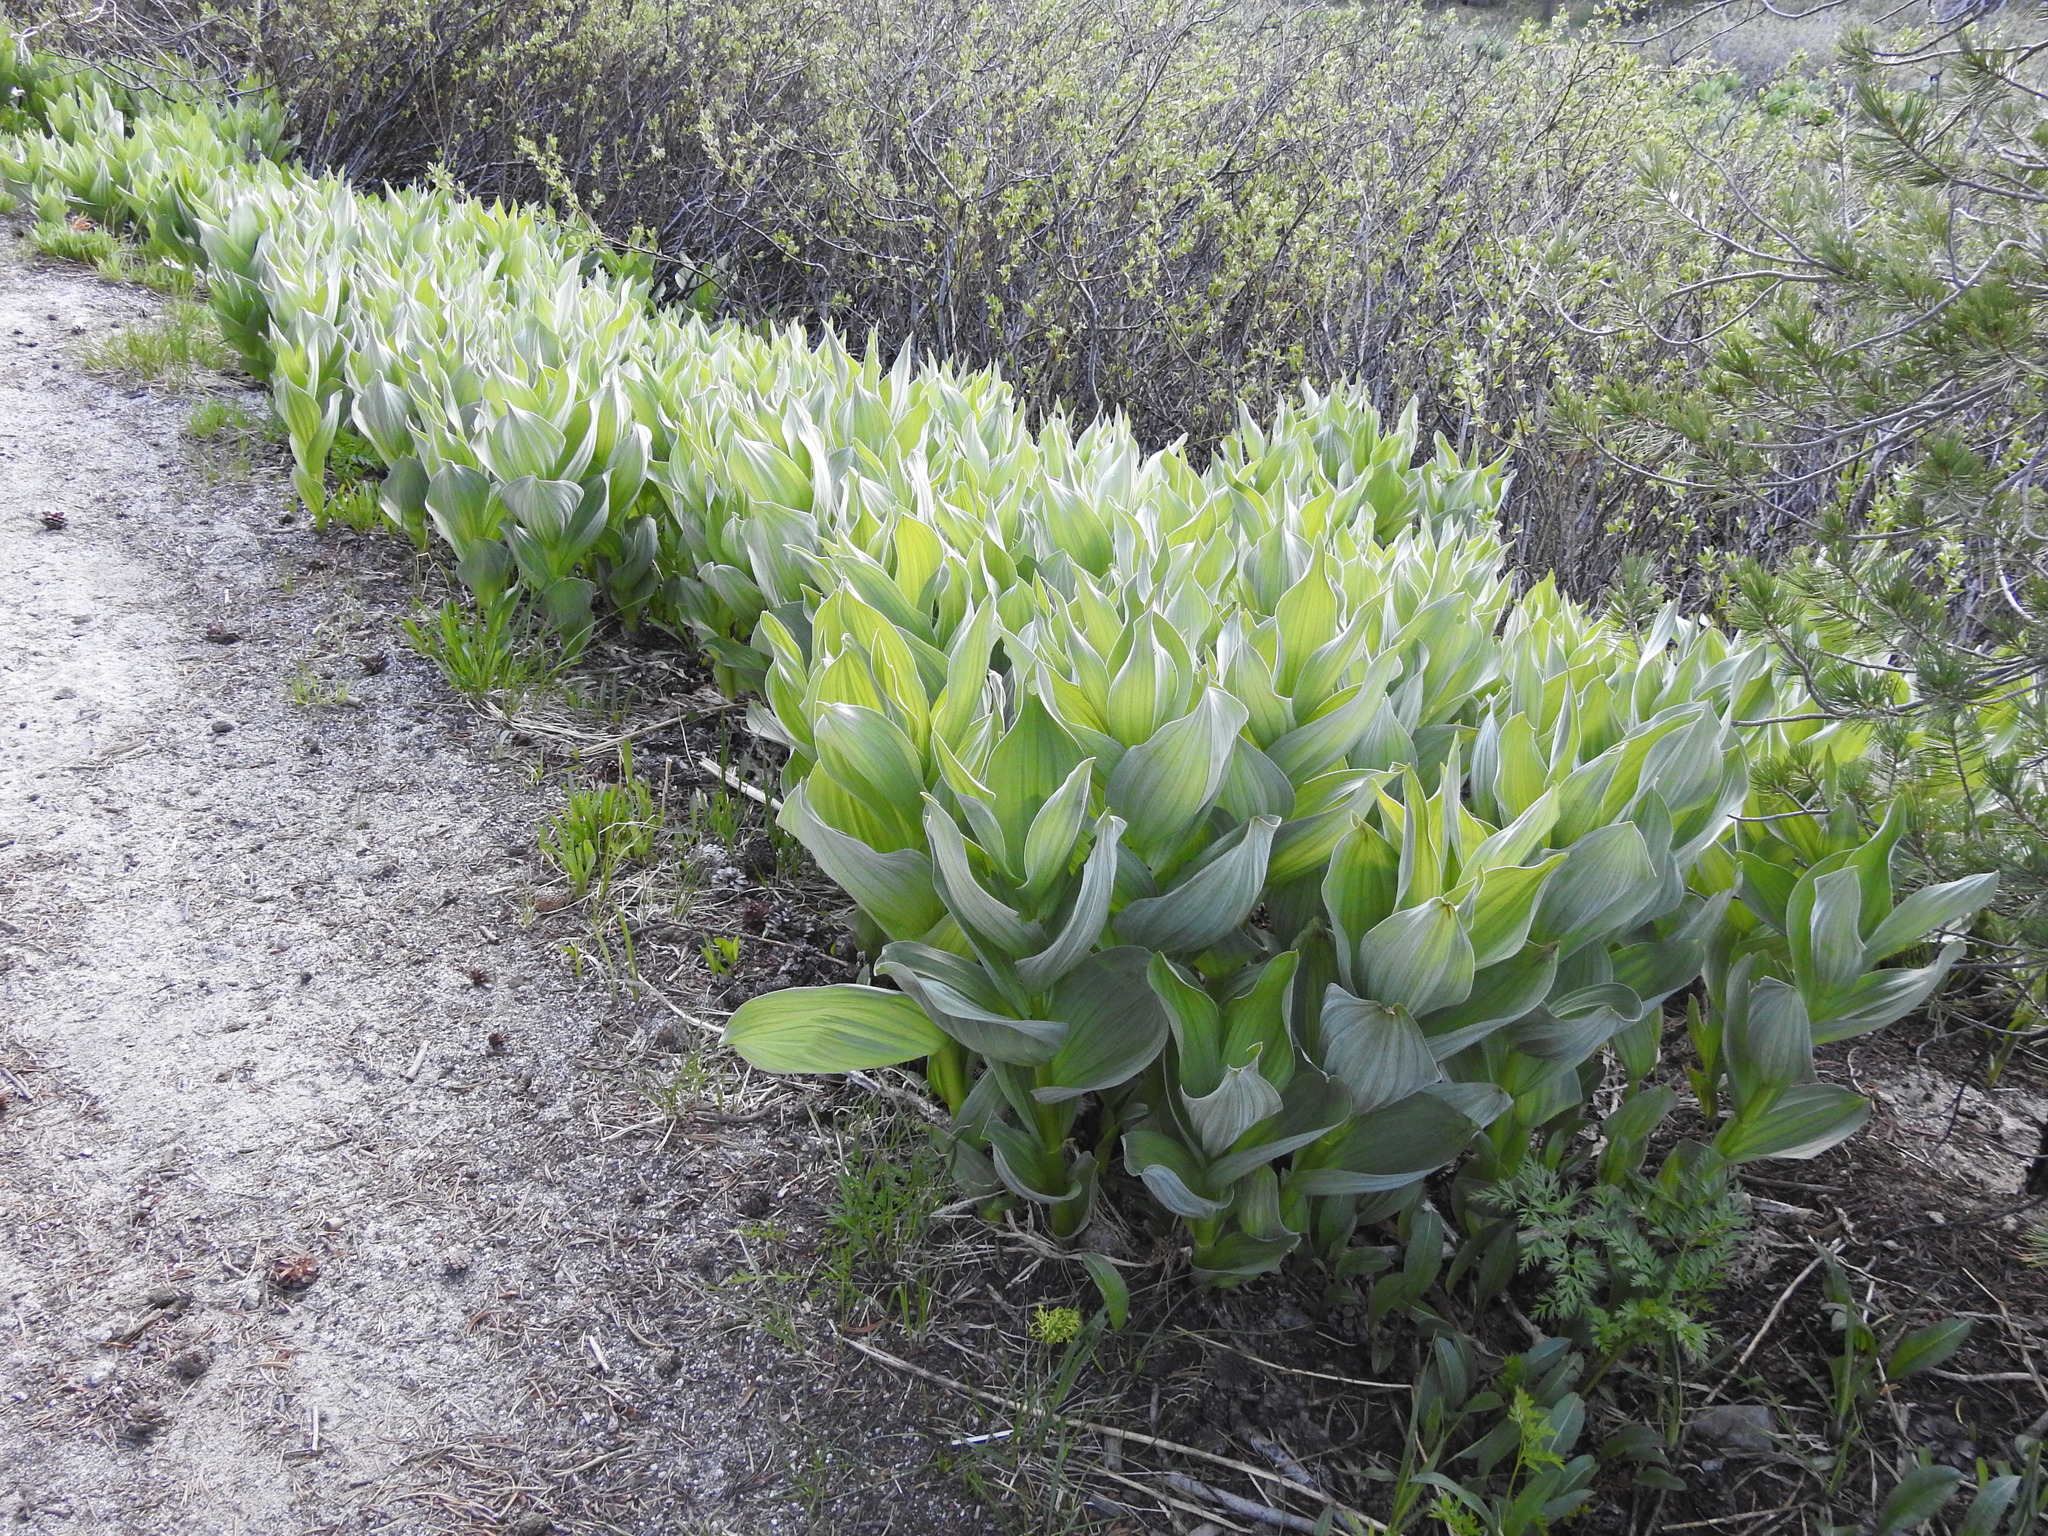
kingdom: Plantae
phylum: Tracheophyta
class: Liliopsida
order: Liliales
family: Melanthiaceae
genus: Veratrum
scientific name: Veratrum californicum
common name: California veratrum
